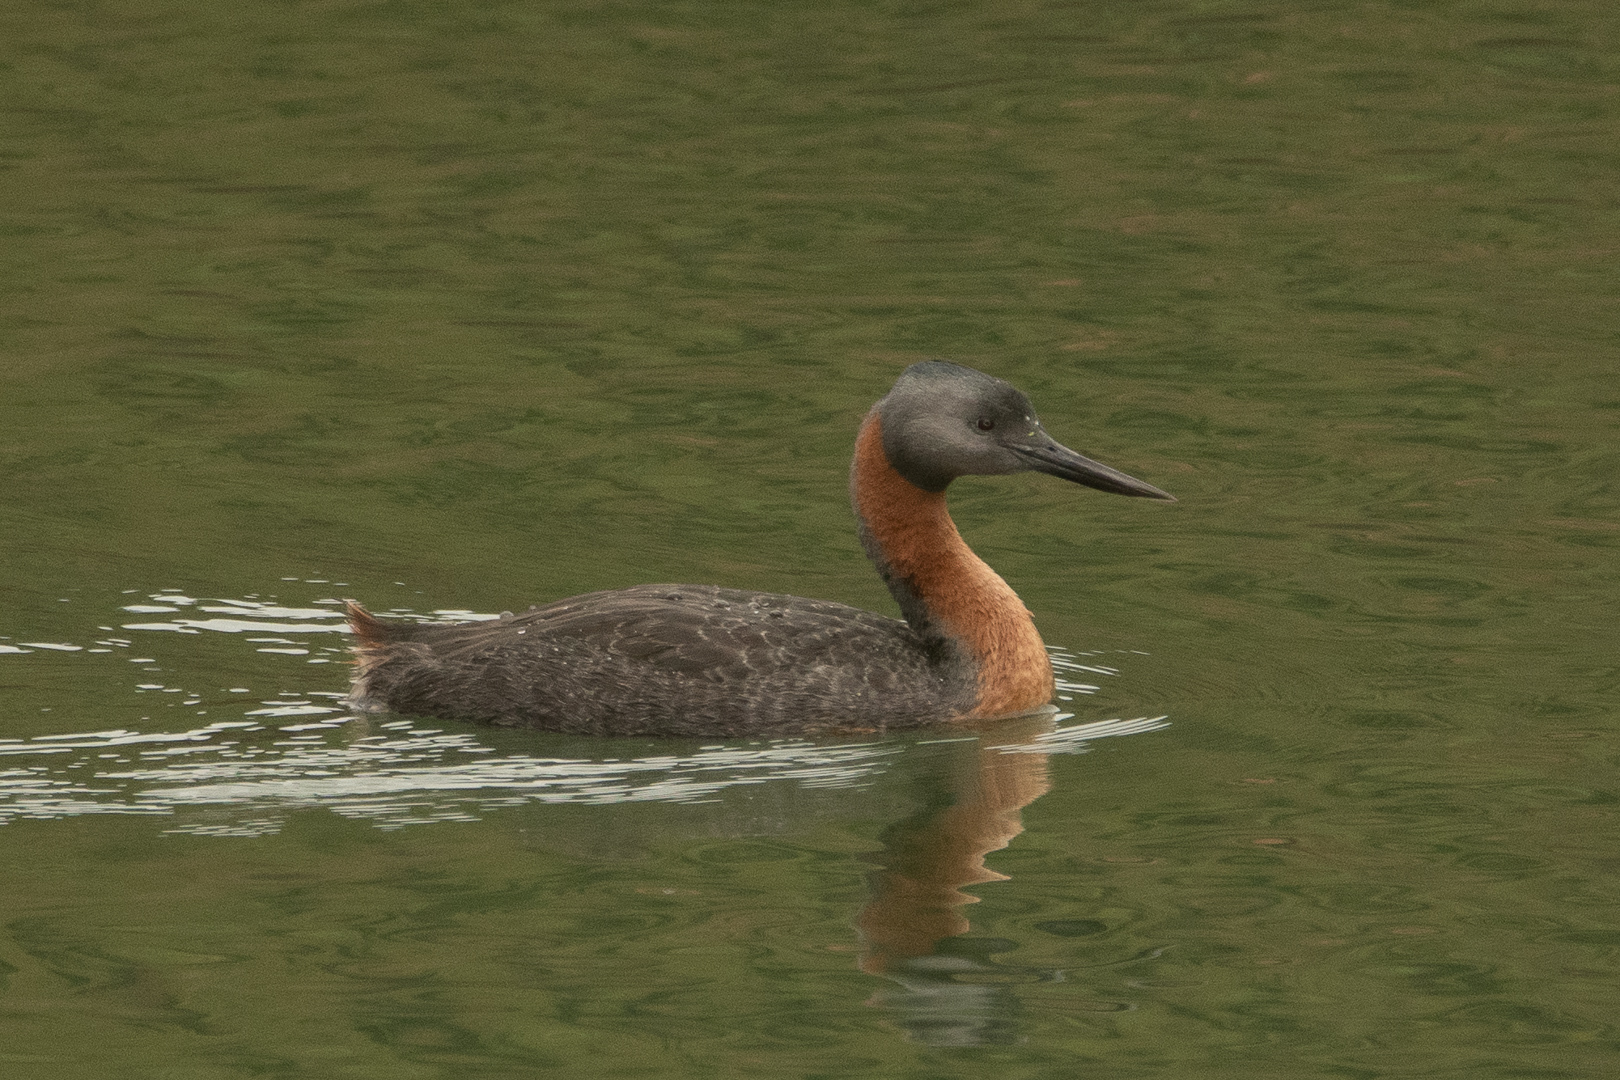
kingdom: Animalia
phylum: Chordata
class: Aves
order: Podicipediformes
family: Podicipedidae
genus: Podiceps
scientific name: Podiceps major
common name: Great grebe
